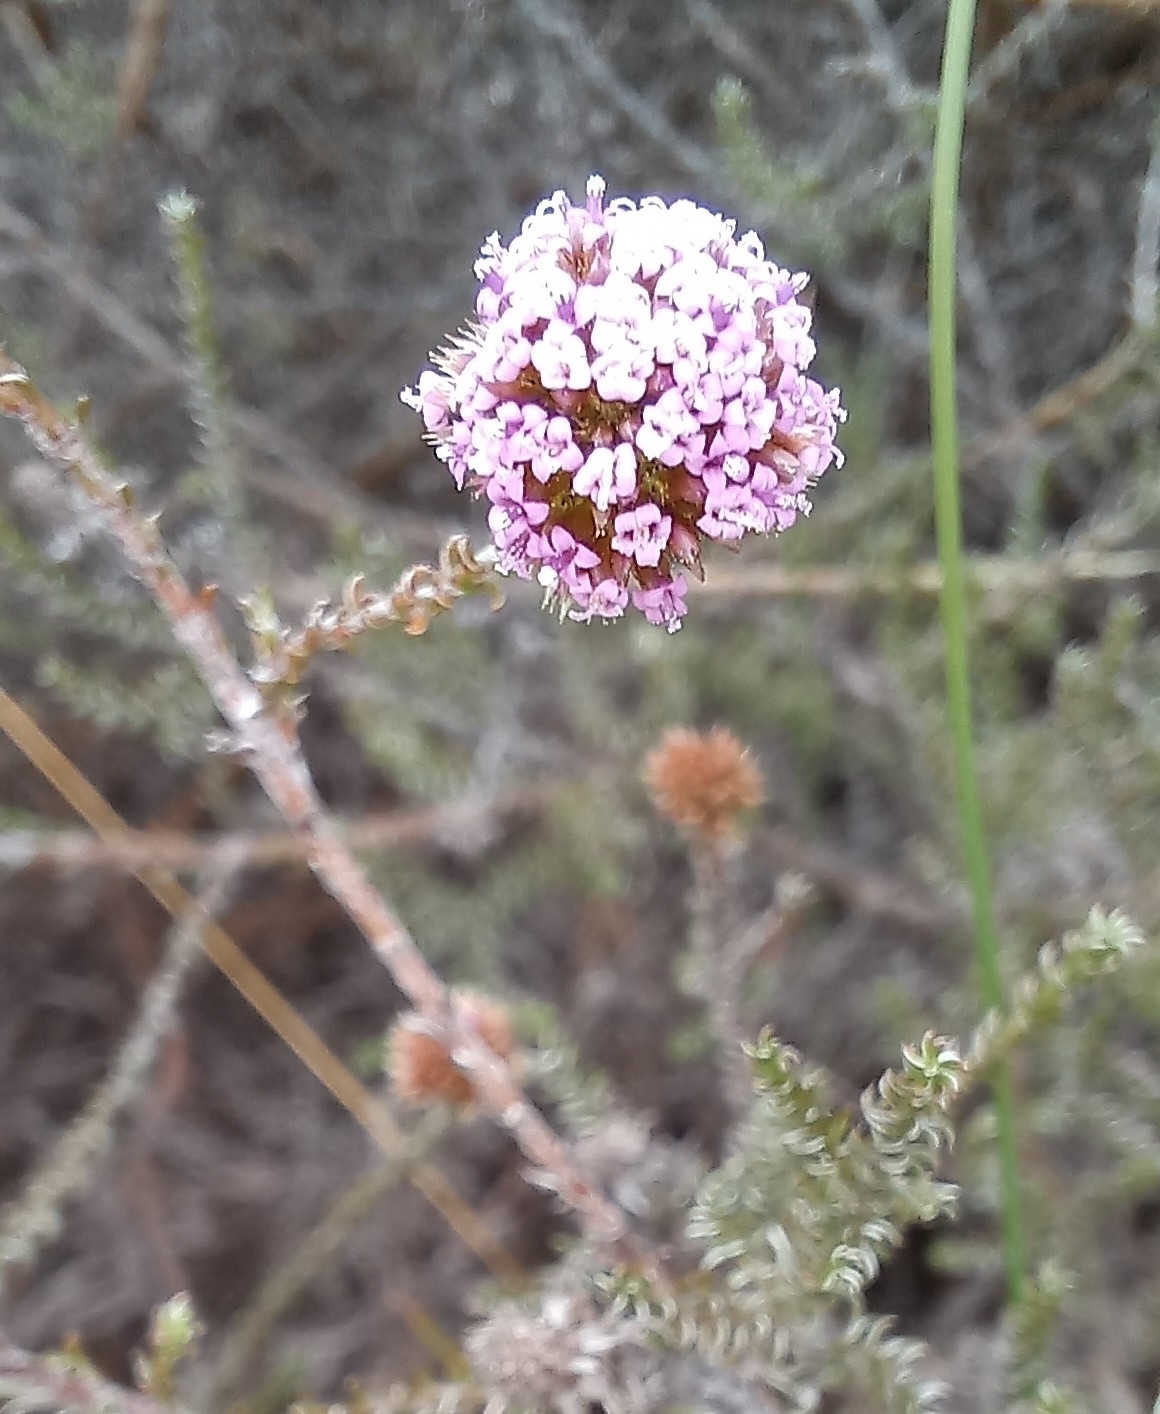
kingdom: Plantae
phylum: Tracheophyta
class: Magnoliopsida
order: Asterales
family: Asteraceae
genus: Stoebe
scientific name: Stoebe capitata
